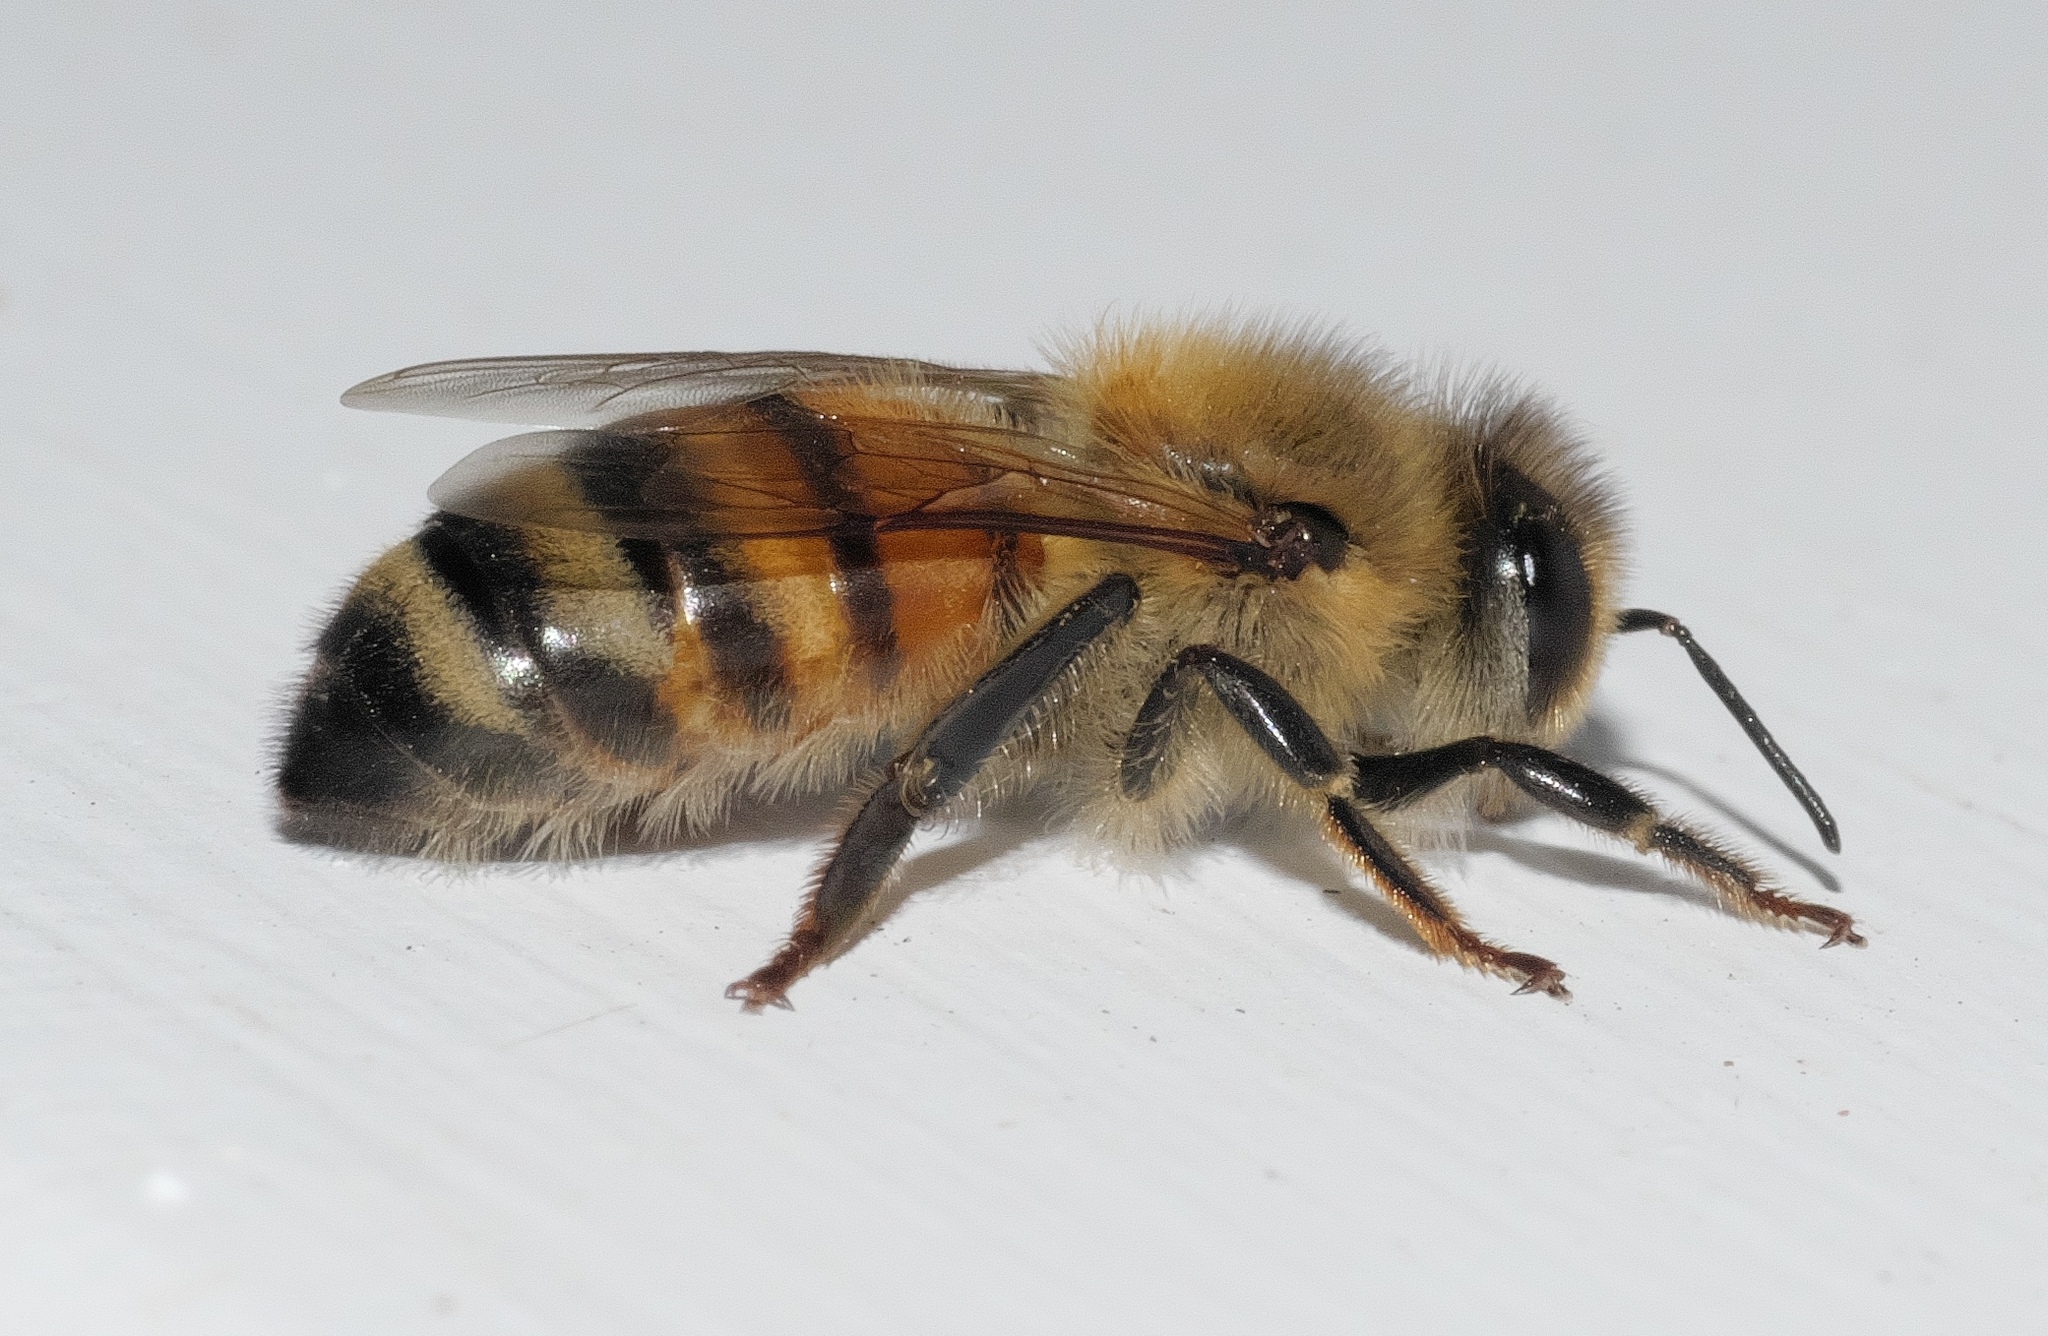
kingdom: Animalia
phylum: Arthropoda
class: Insecta
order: Hymenoptera
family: Apidae
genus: Apis
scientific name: Apis mellifera
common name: Honey bee
